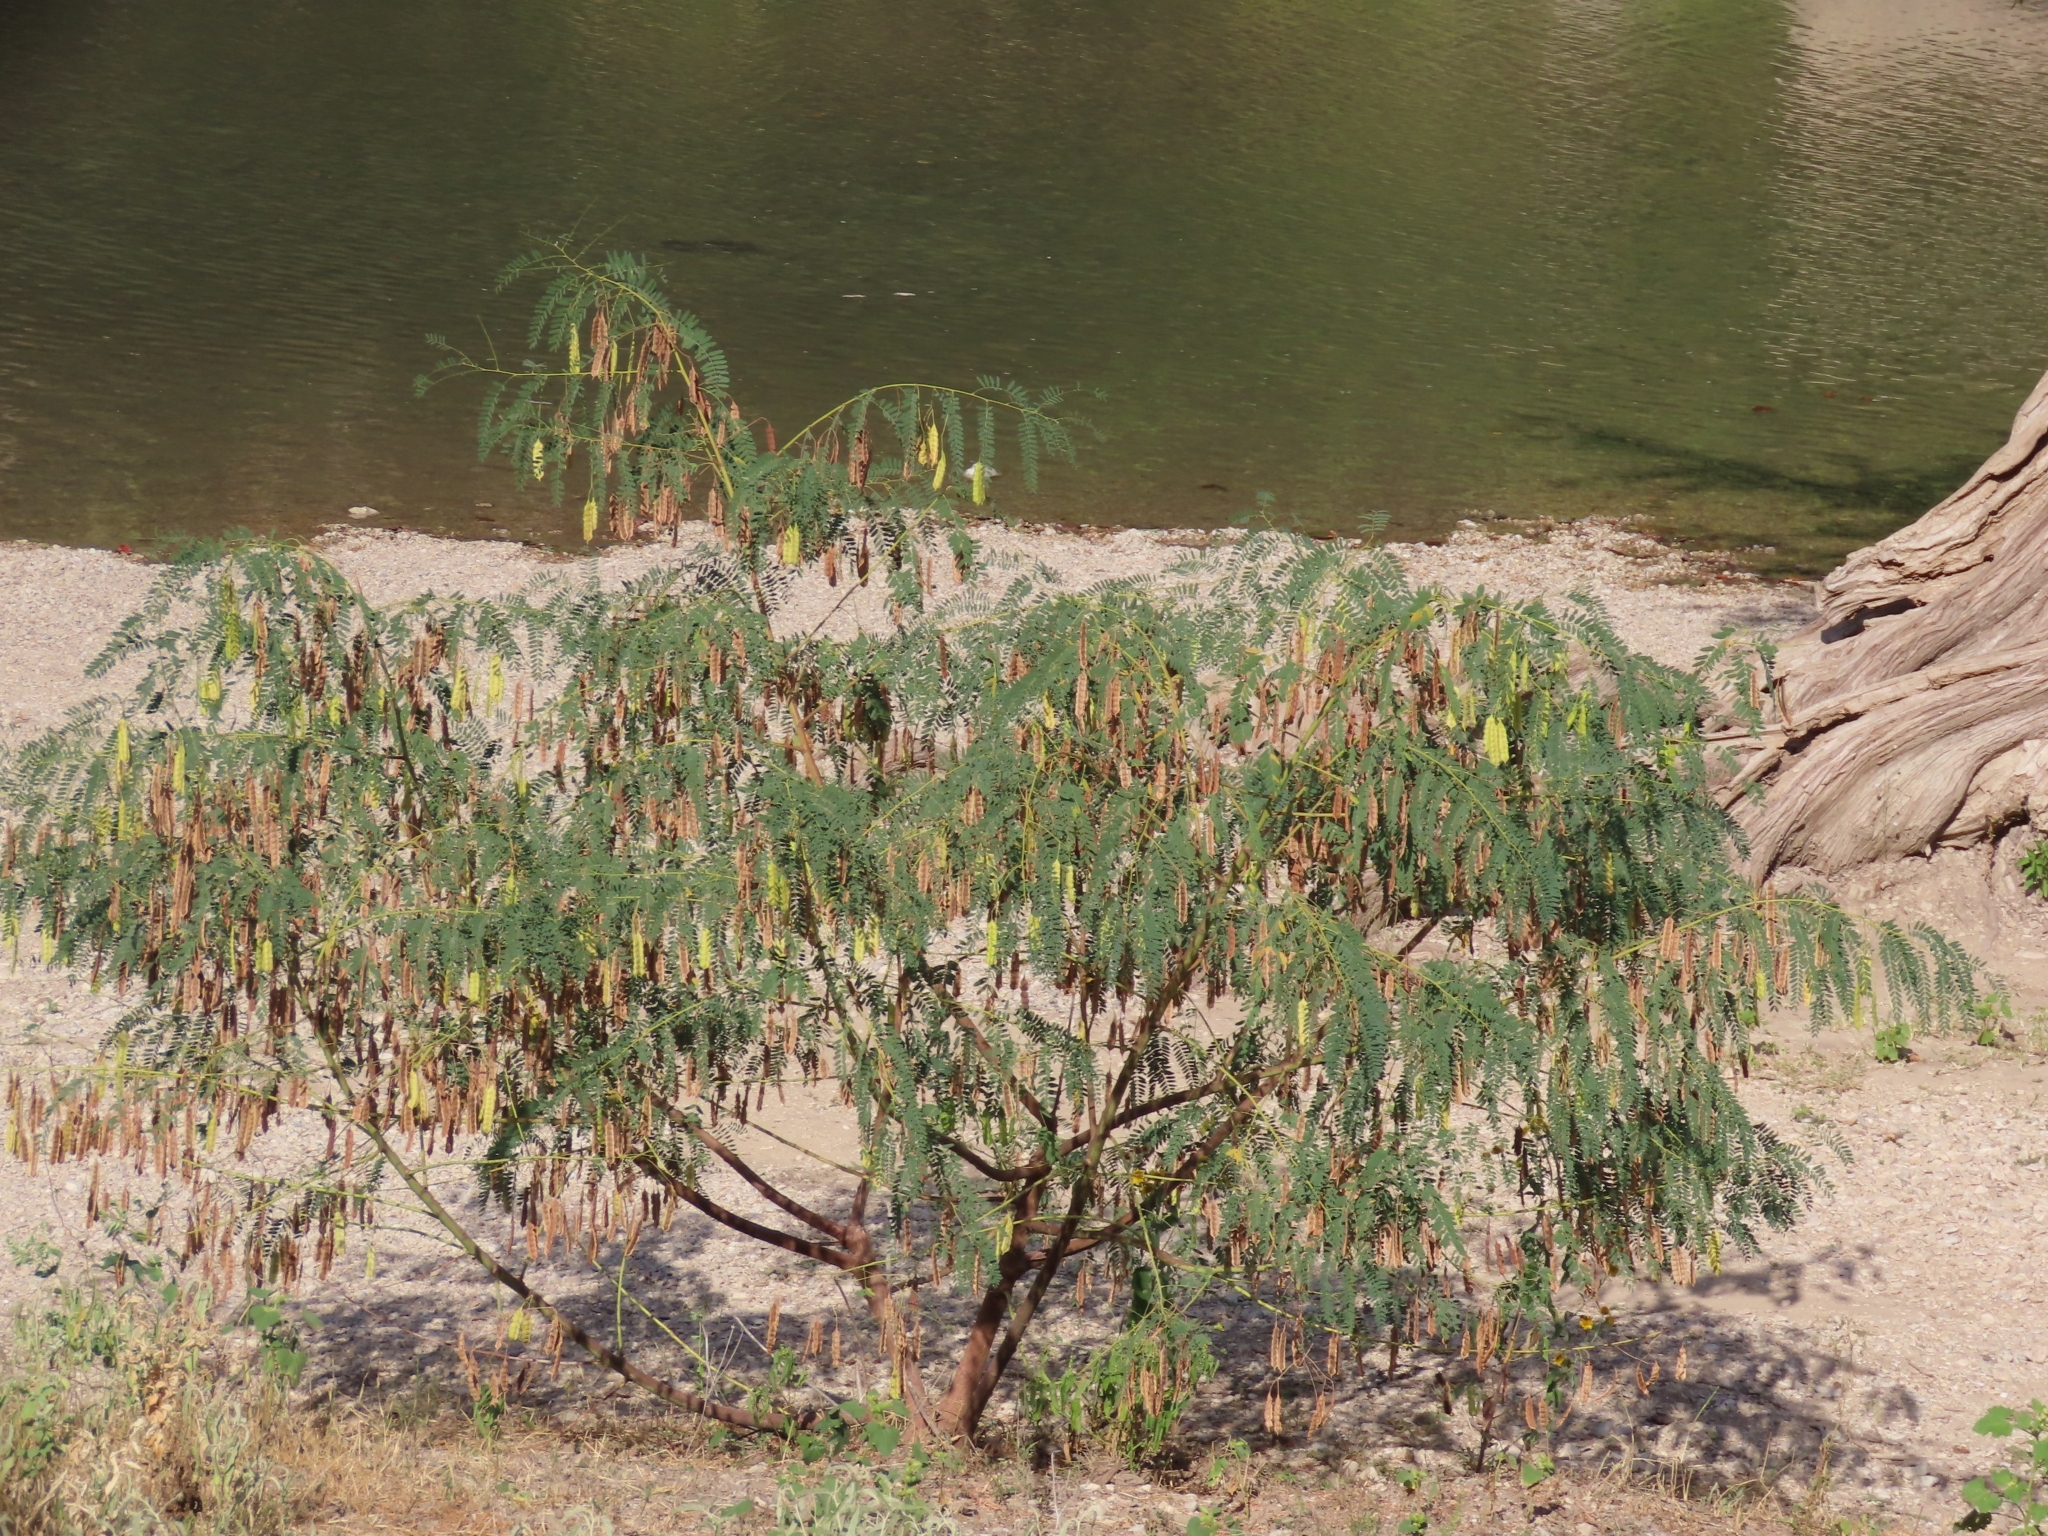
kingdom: Plantae
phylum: Tracheophyta
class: Magnoliopsida
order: Fabales
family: Fabaceae
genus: Sesbania
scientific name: Sesbania drummondii
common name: Poison-bean
